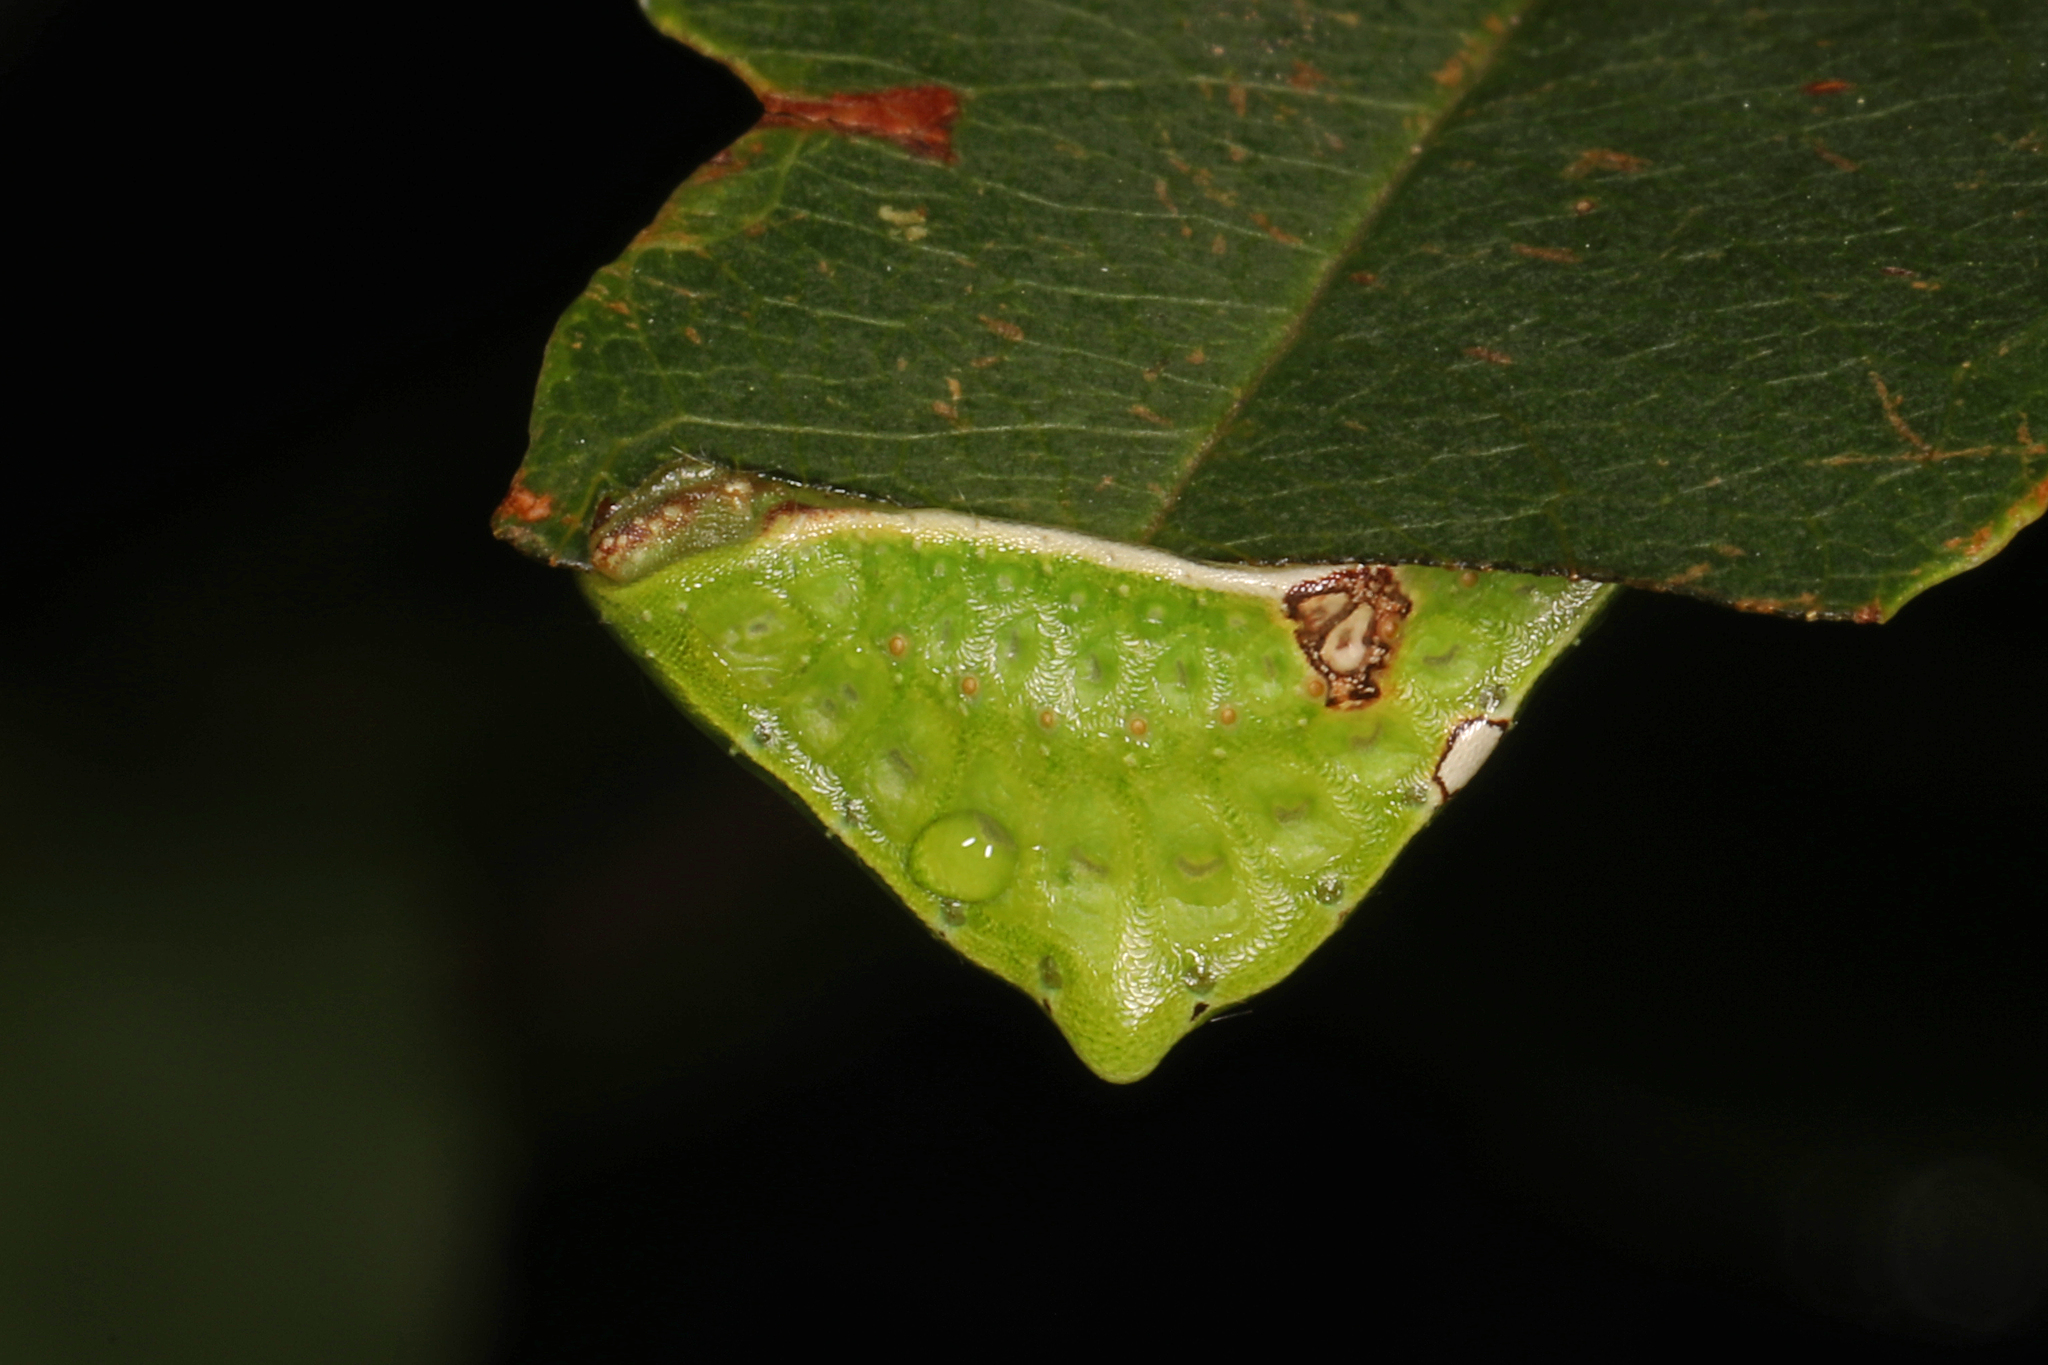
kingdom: Animalia
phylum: Arthropoda
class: Insecta
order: Lepidoptera
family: Limacodidae
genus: Prolimacodes
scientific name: Prolimacodes badia
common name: Skiff moth
